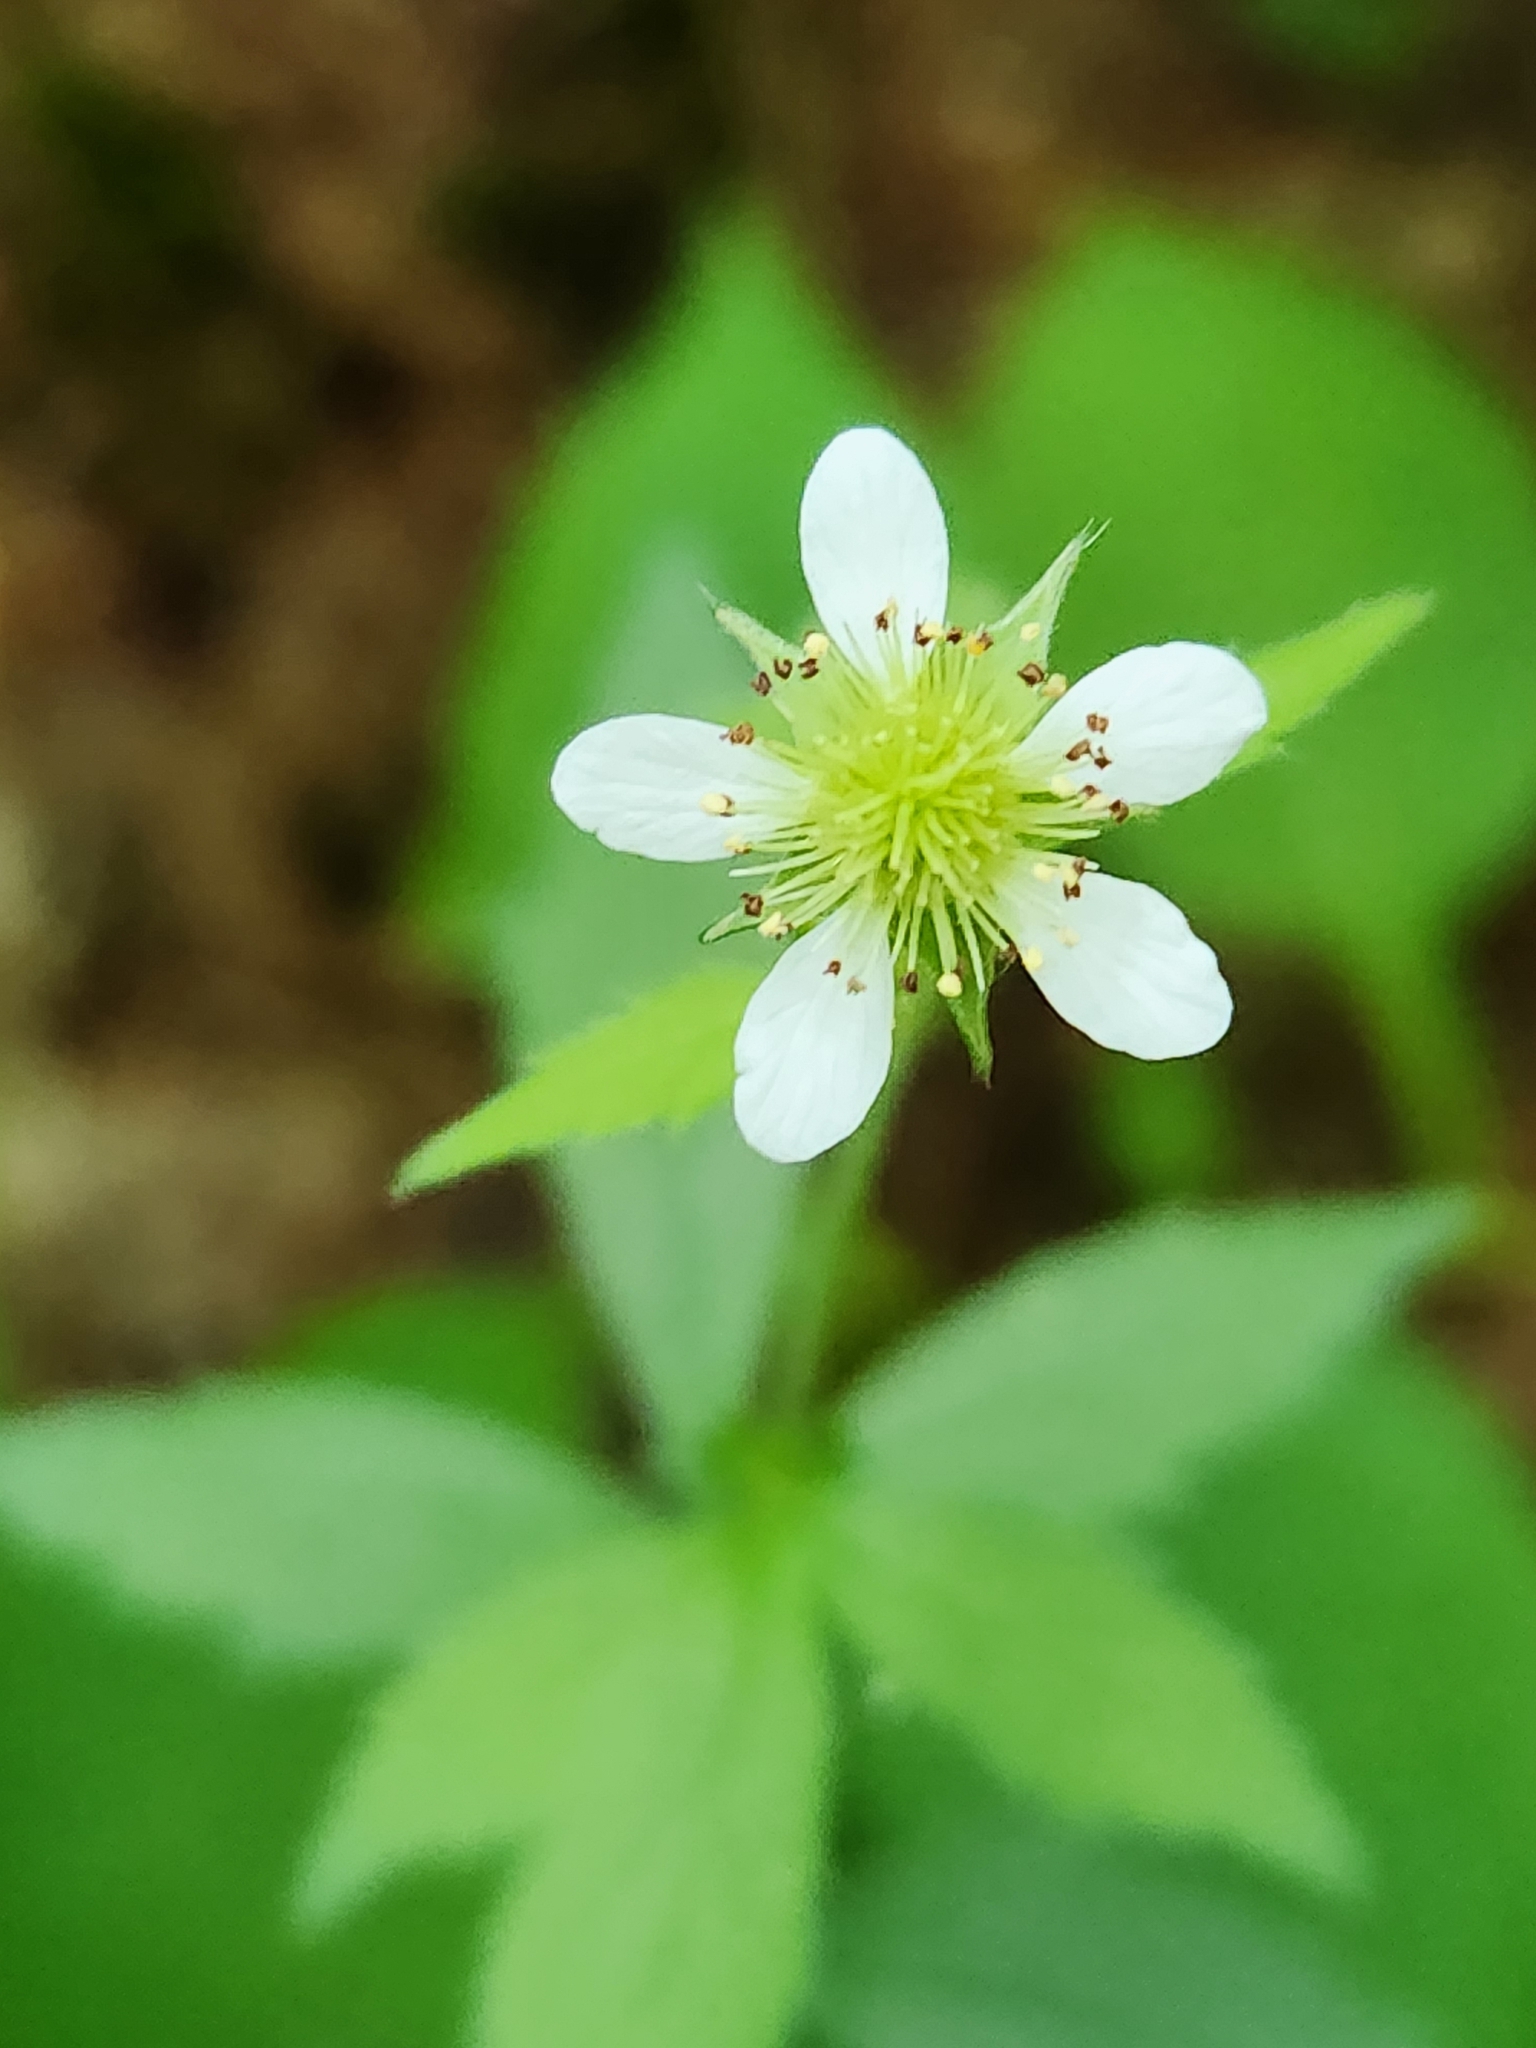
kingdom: Plantae
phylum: Tracheophyta
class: Magnoliopsida
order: Rosales
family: Rosaceae
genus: Geum
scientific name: Geum canadense
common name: White avens
